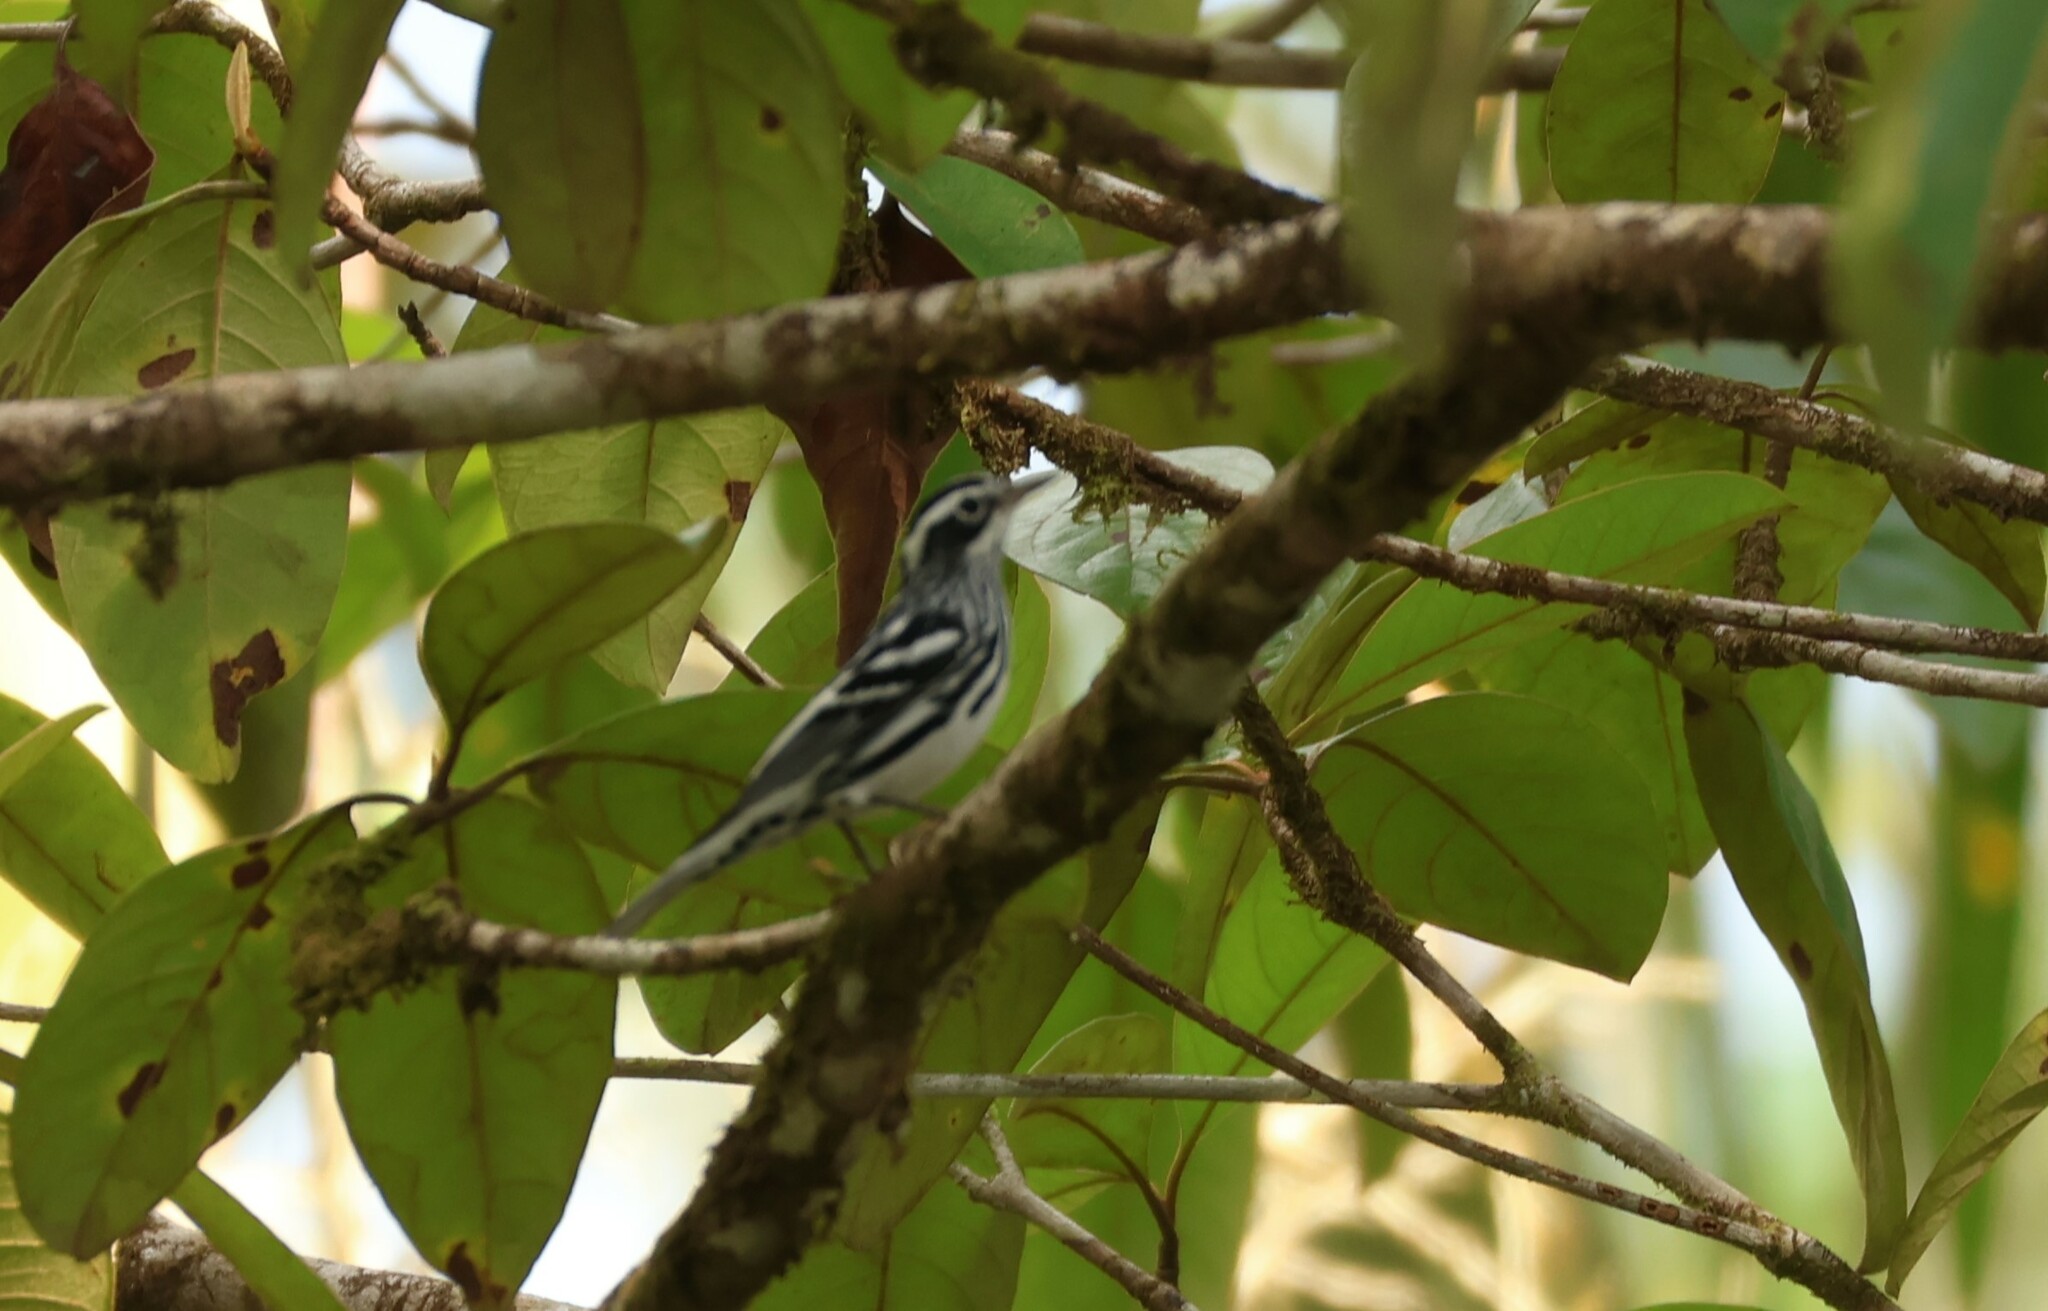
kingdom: Animalia
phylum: Chordata
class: Aves
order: Passeriformes
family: Parulidae
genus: Mniotilta
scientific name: Mniotilta varia
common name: Black-and-white warbler
